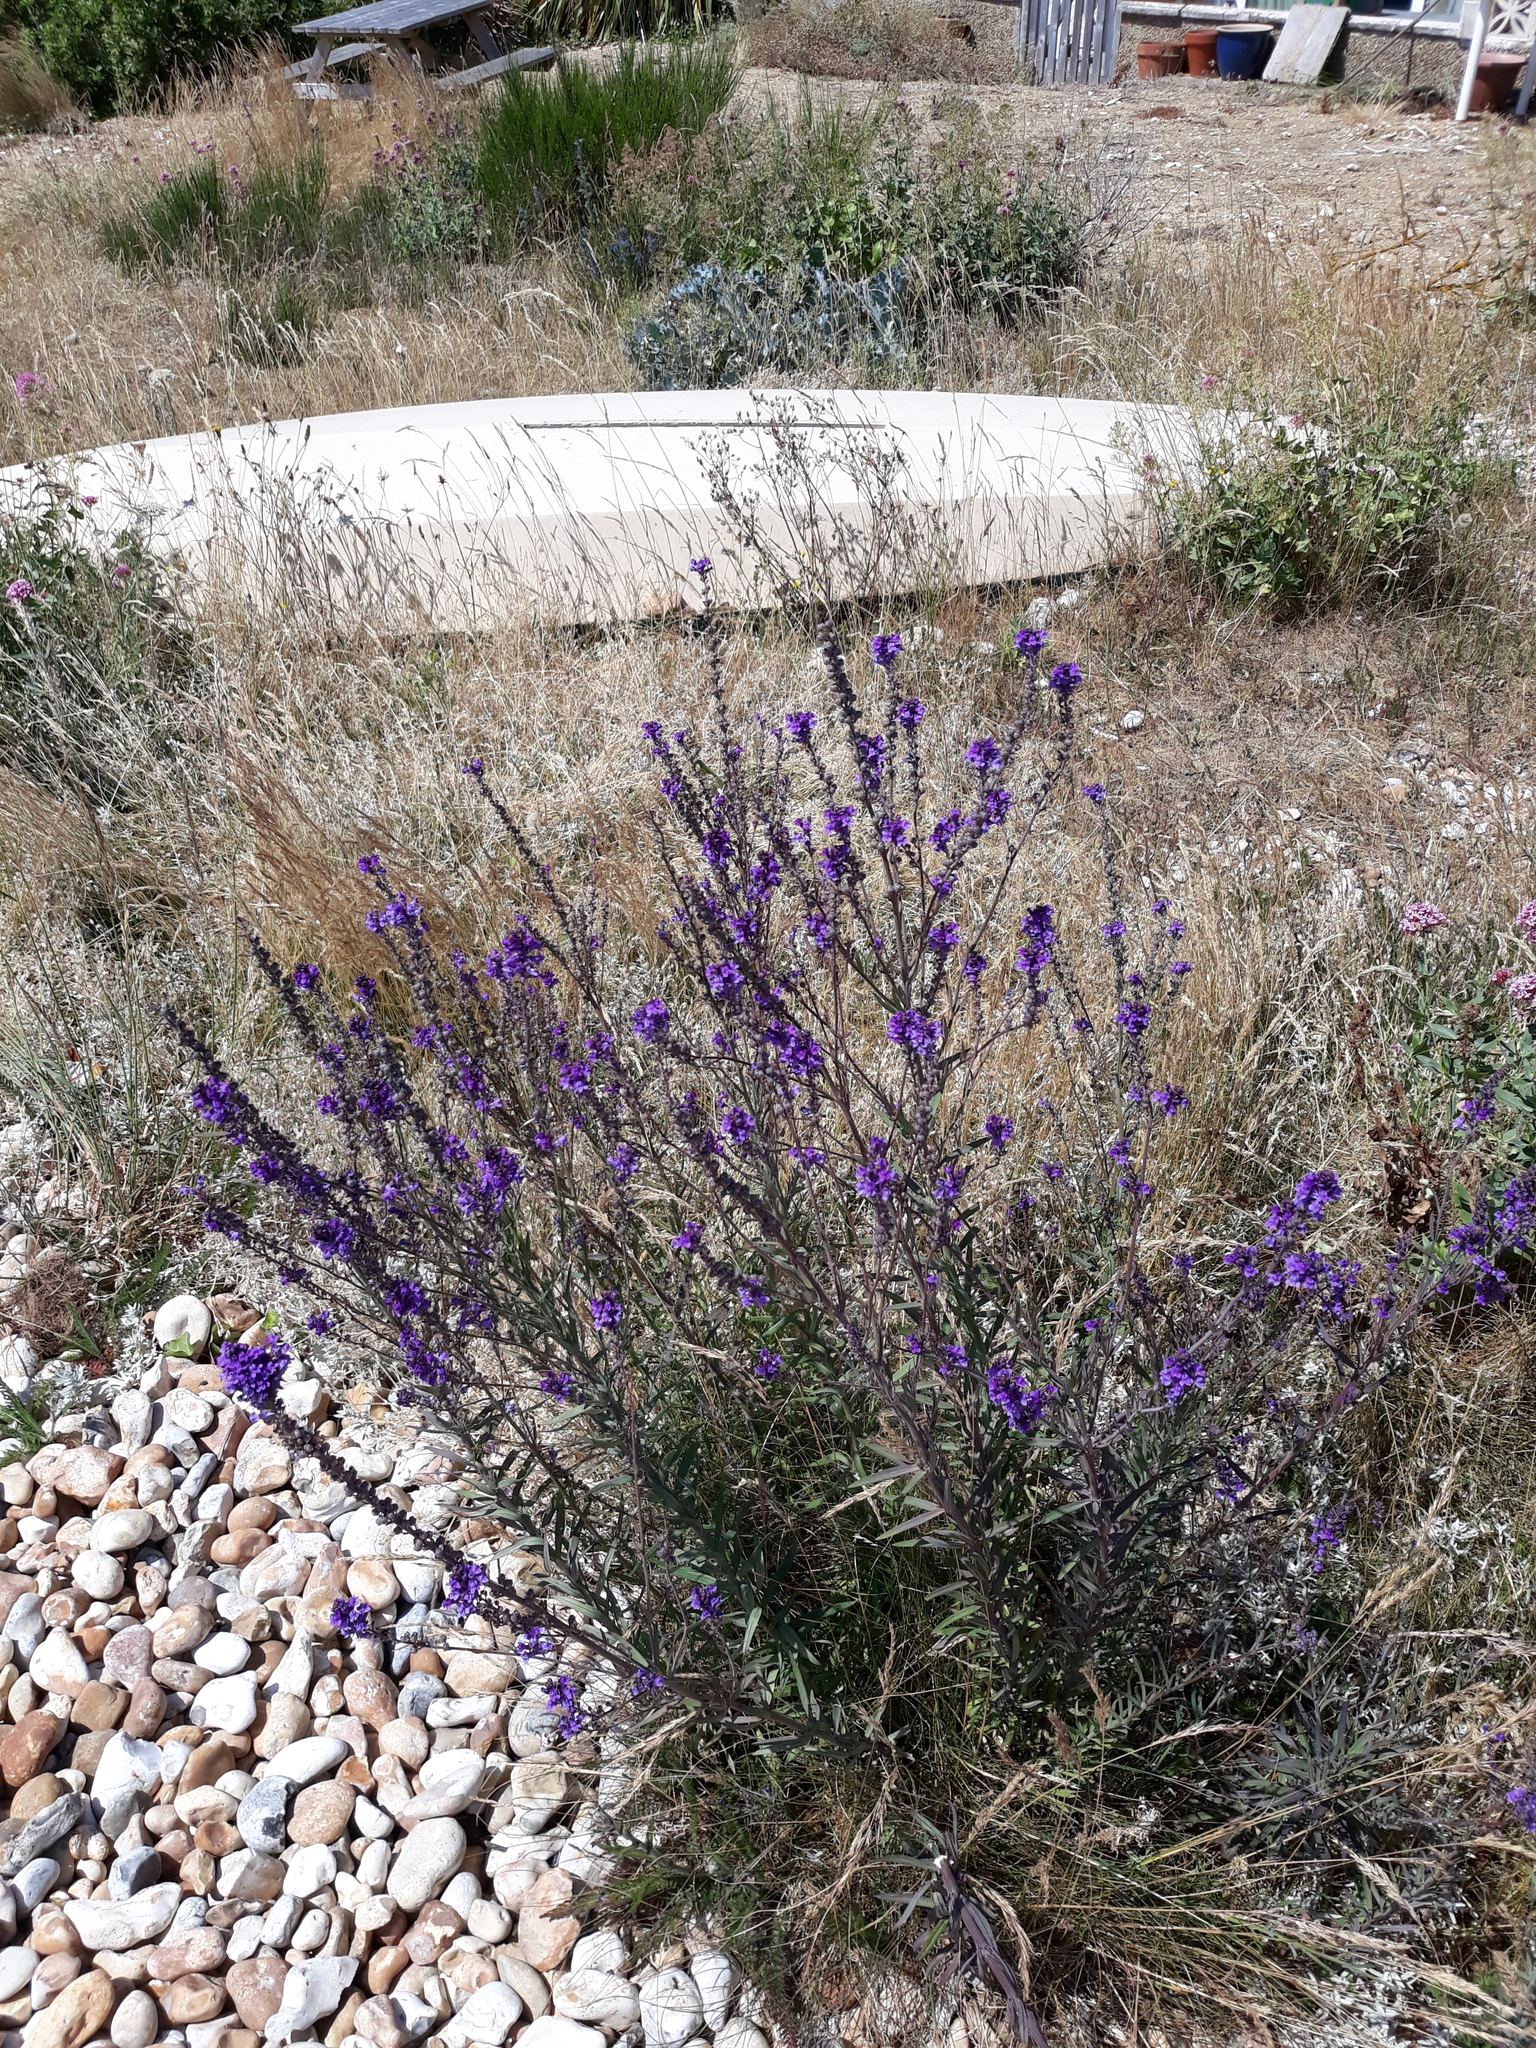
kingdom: Plantae
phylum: Tracheophyta
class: Magnoliopsida
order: Lamiales
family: Plantaginaceae
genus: Linaria
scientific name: Linaria purpurea
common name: Purple toadflax
